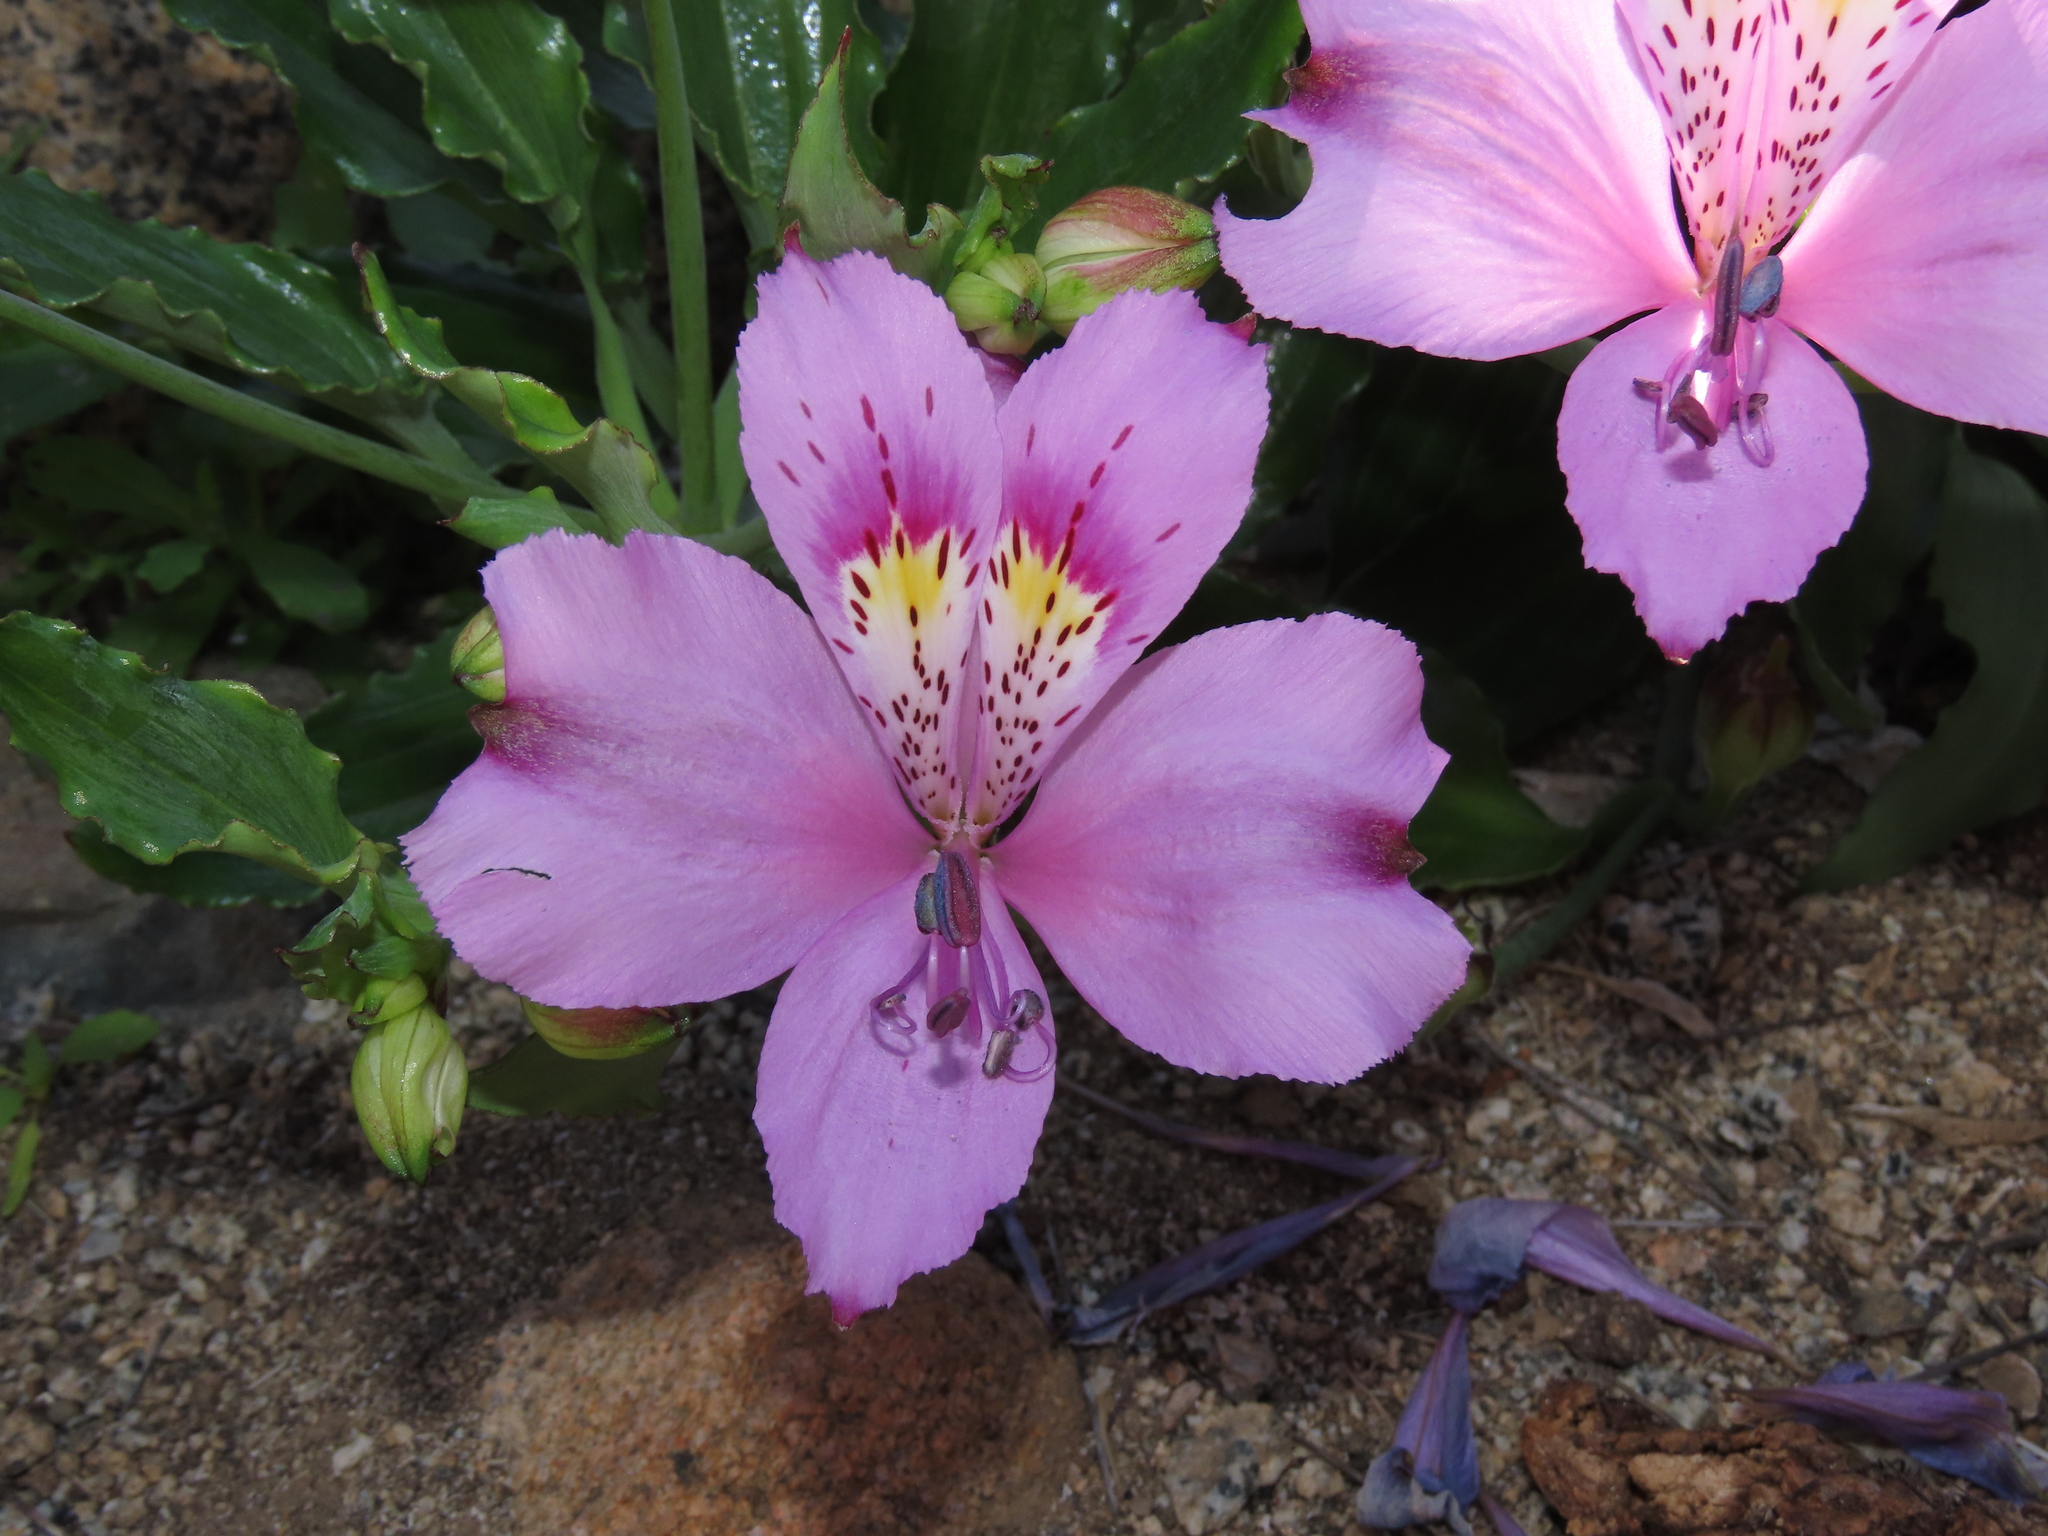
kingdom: Plantae
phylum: Tracheophyta
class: Liliopsida
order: Liliales
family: Alstroemeriaceae
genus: Alstroemeria
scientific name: Alstroemeria violacea
